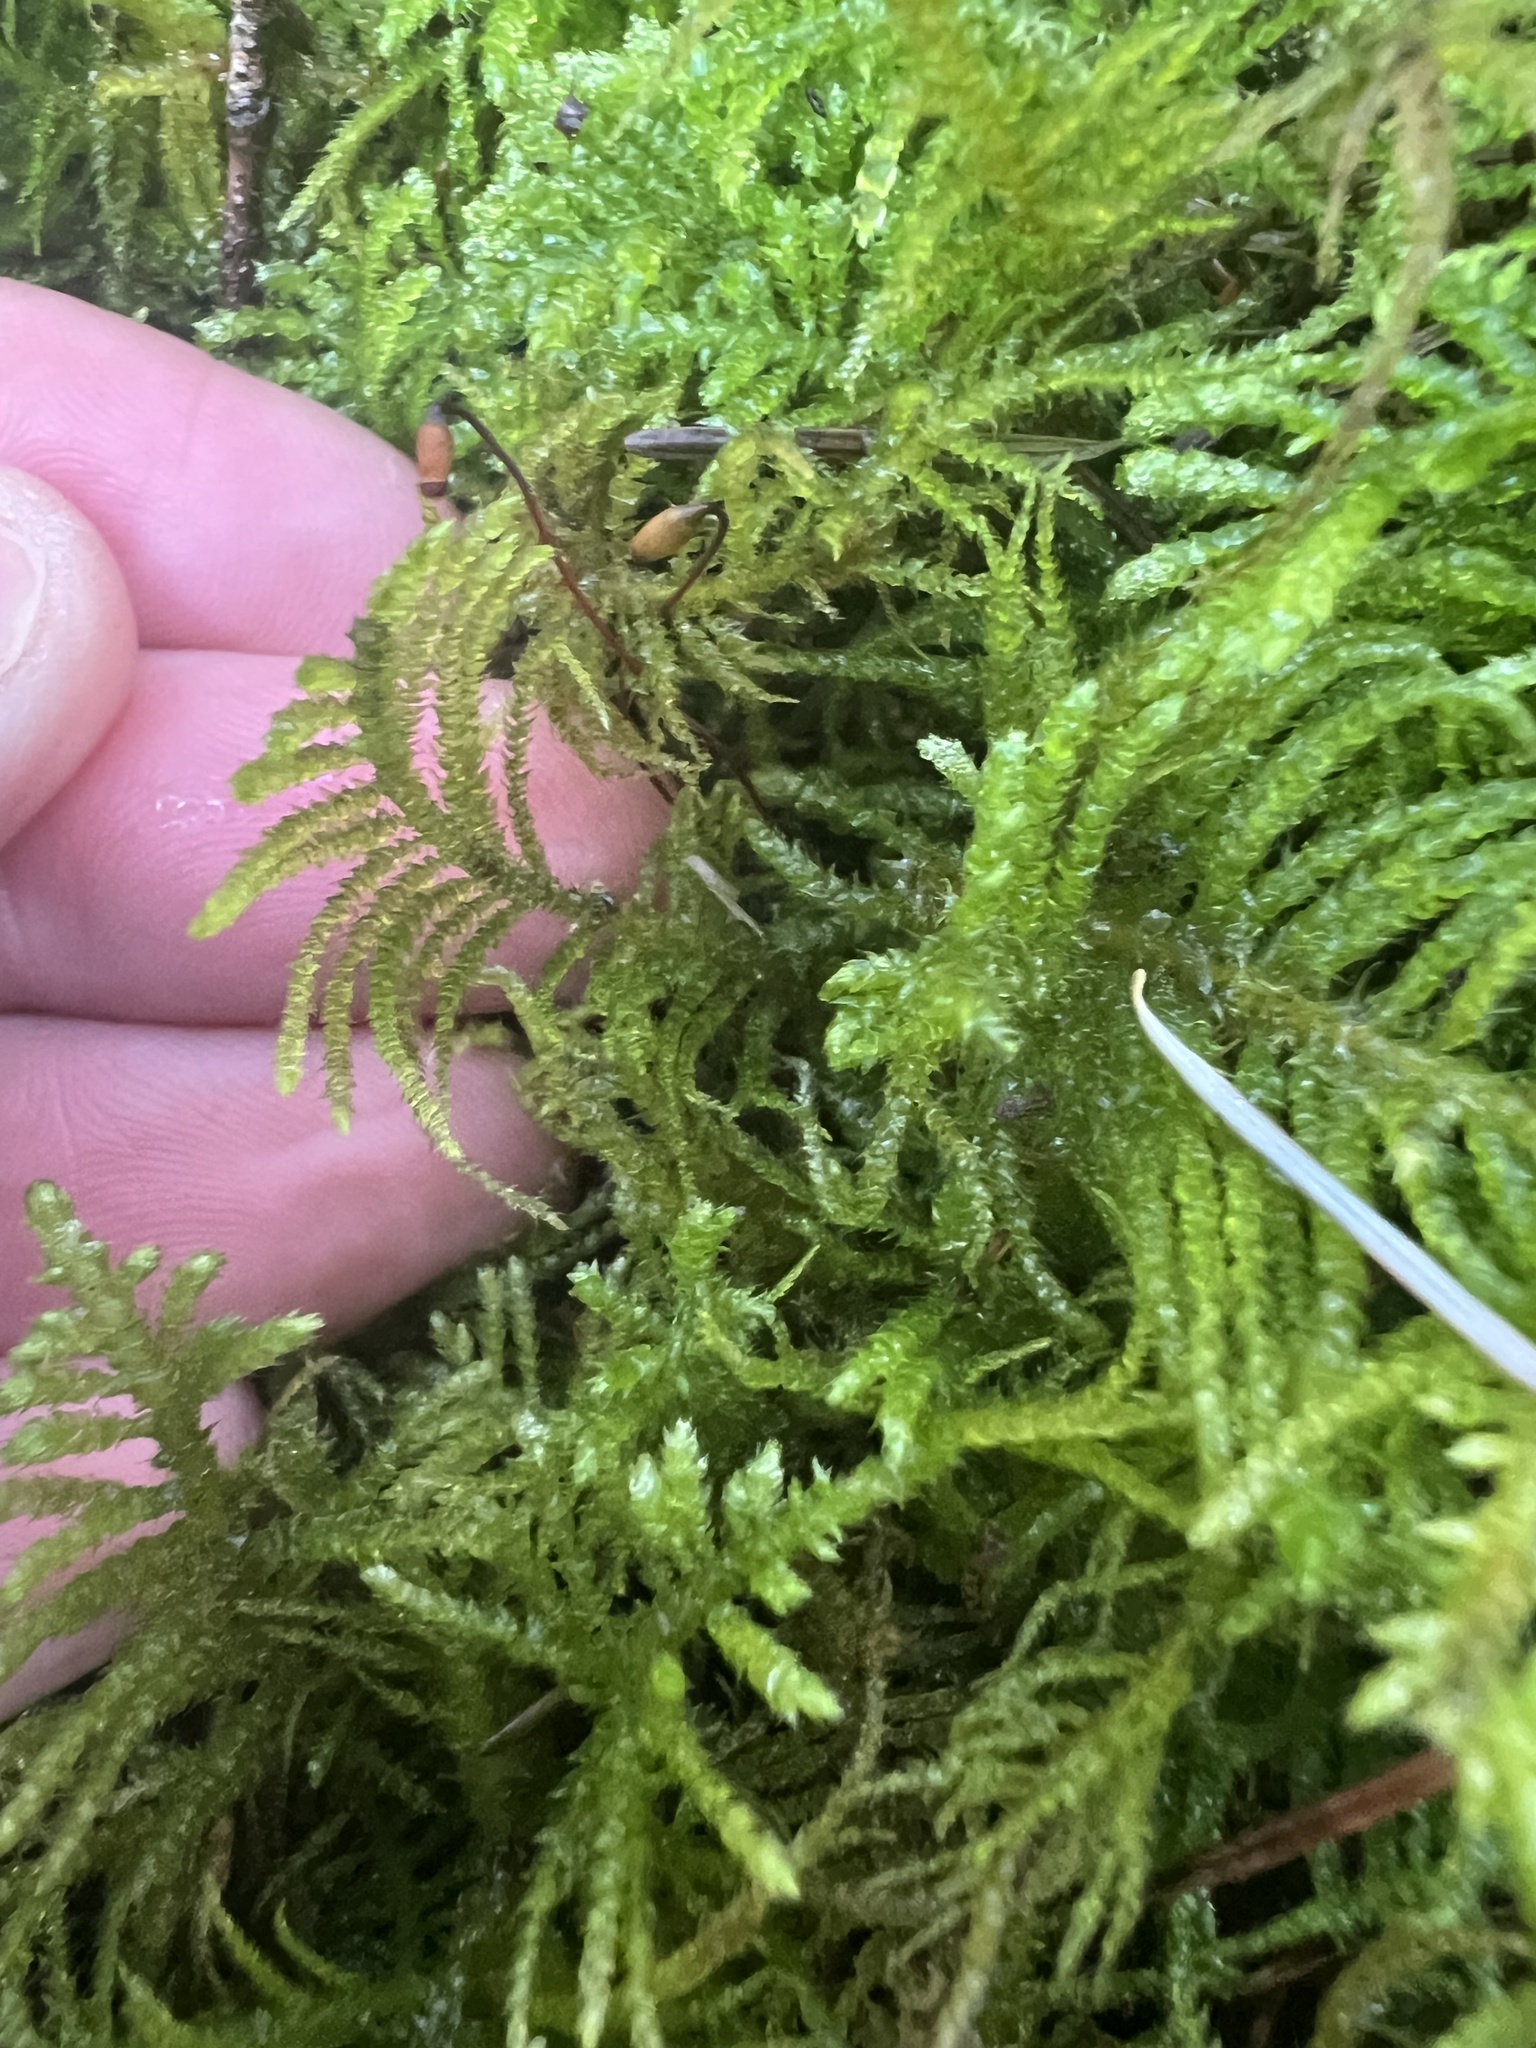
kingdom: Plantae
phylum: Bryophyta
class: Bryopsida
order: Hypnales
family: Brachytheciaceae
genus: Kindbergia
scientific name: Kindbergia oregana
